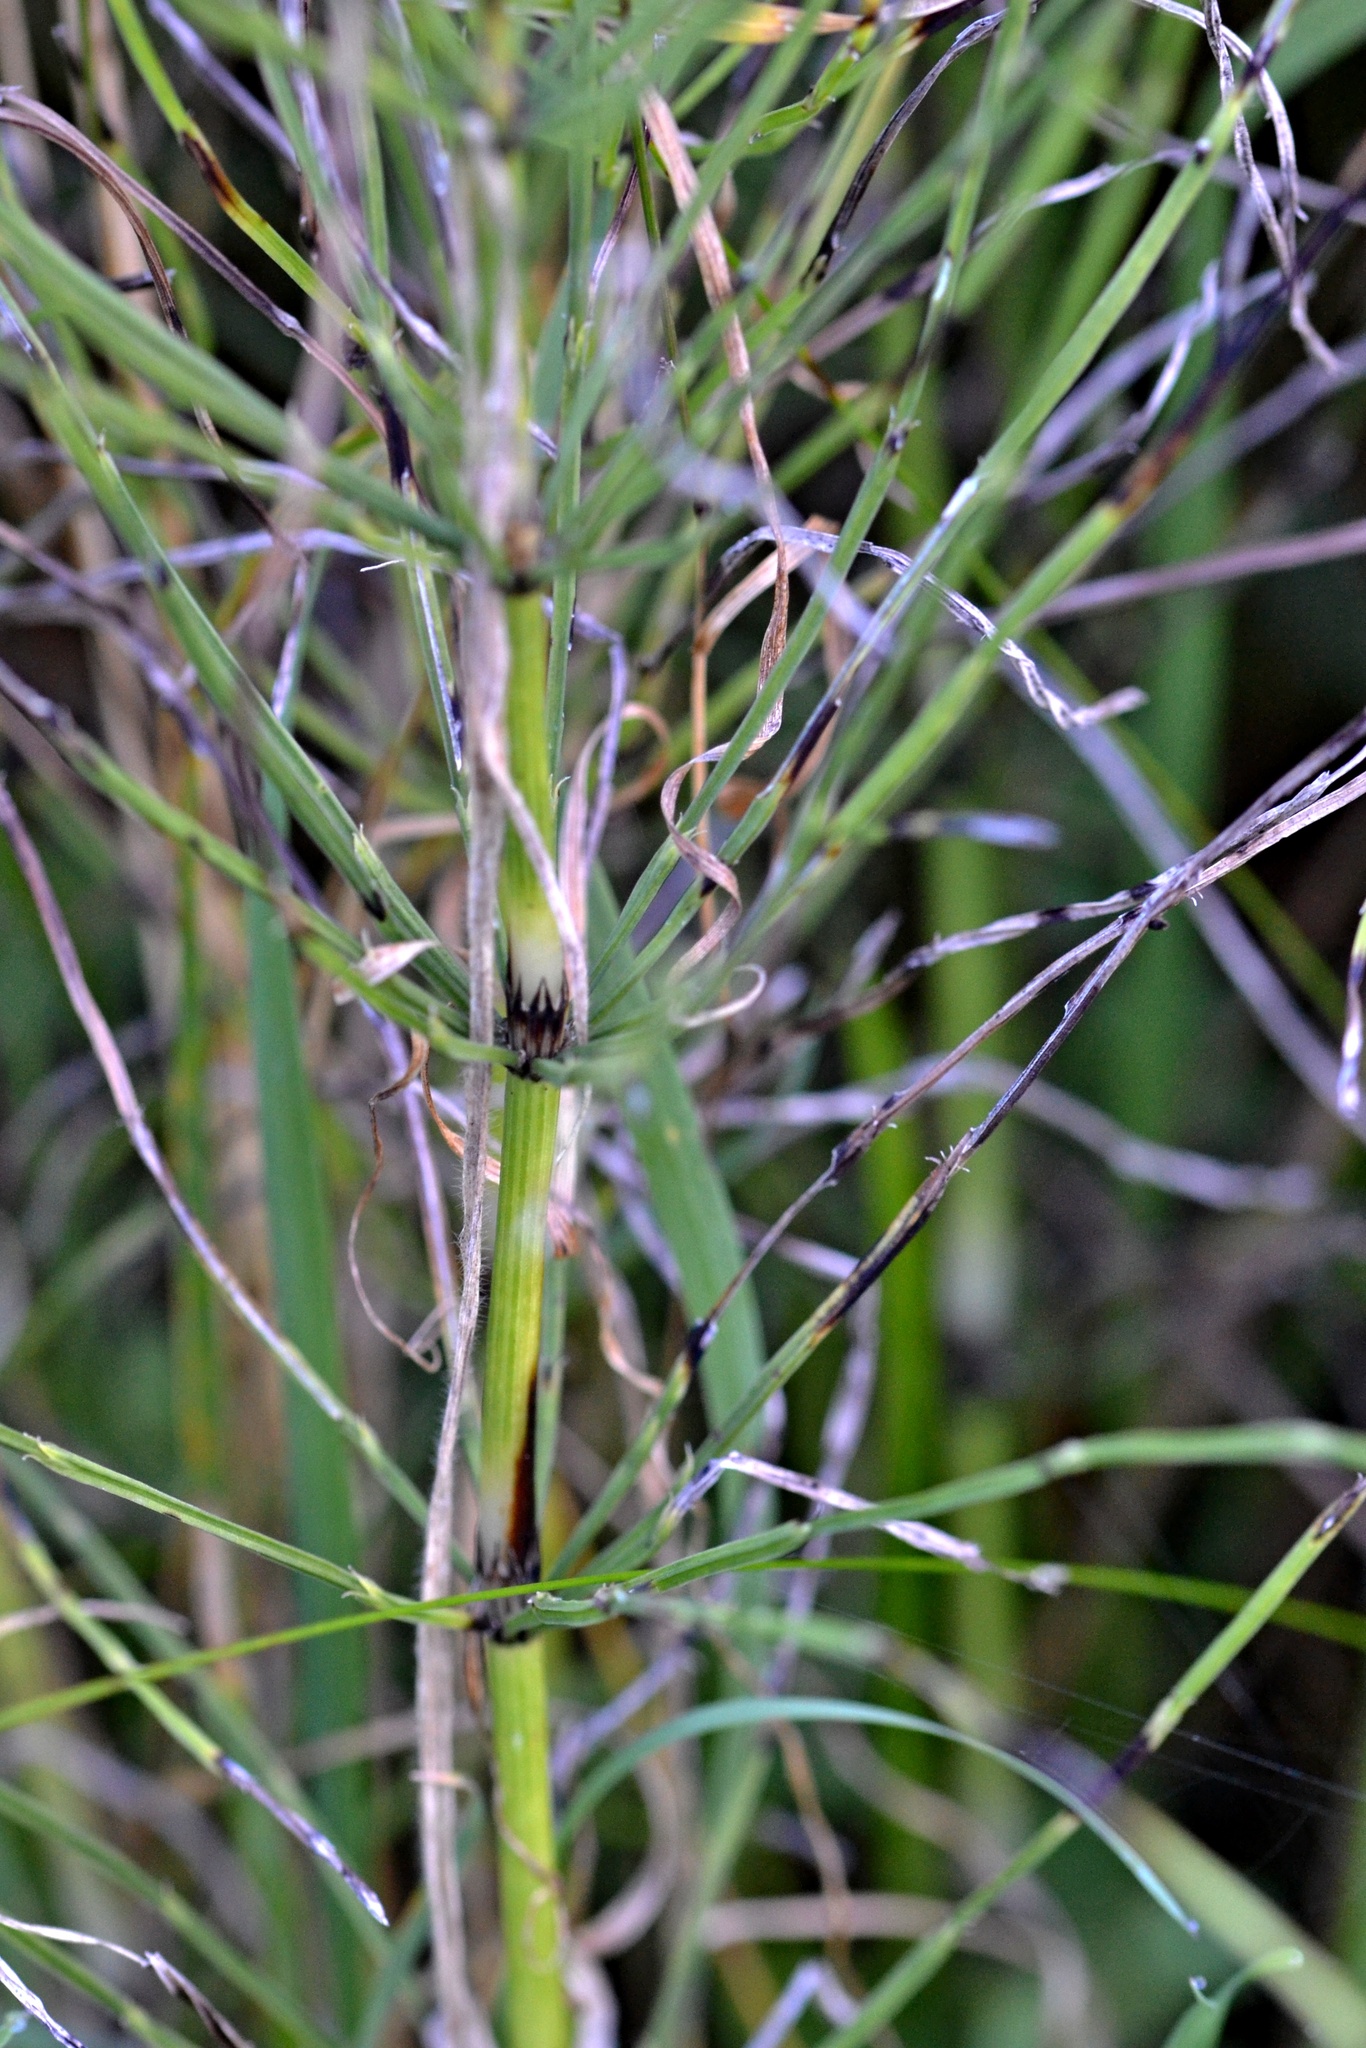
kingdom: Plantae
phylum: Tracheophyta
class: Polypodiopsida
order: Equisetales
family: Equisetaceae
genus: Equisetum
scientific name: Equisetum arvense
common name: Field horsetail
